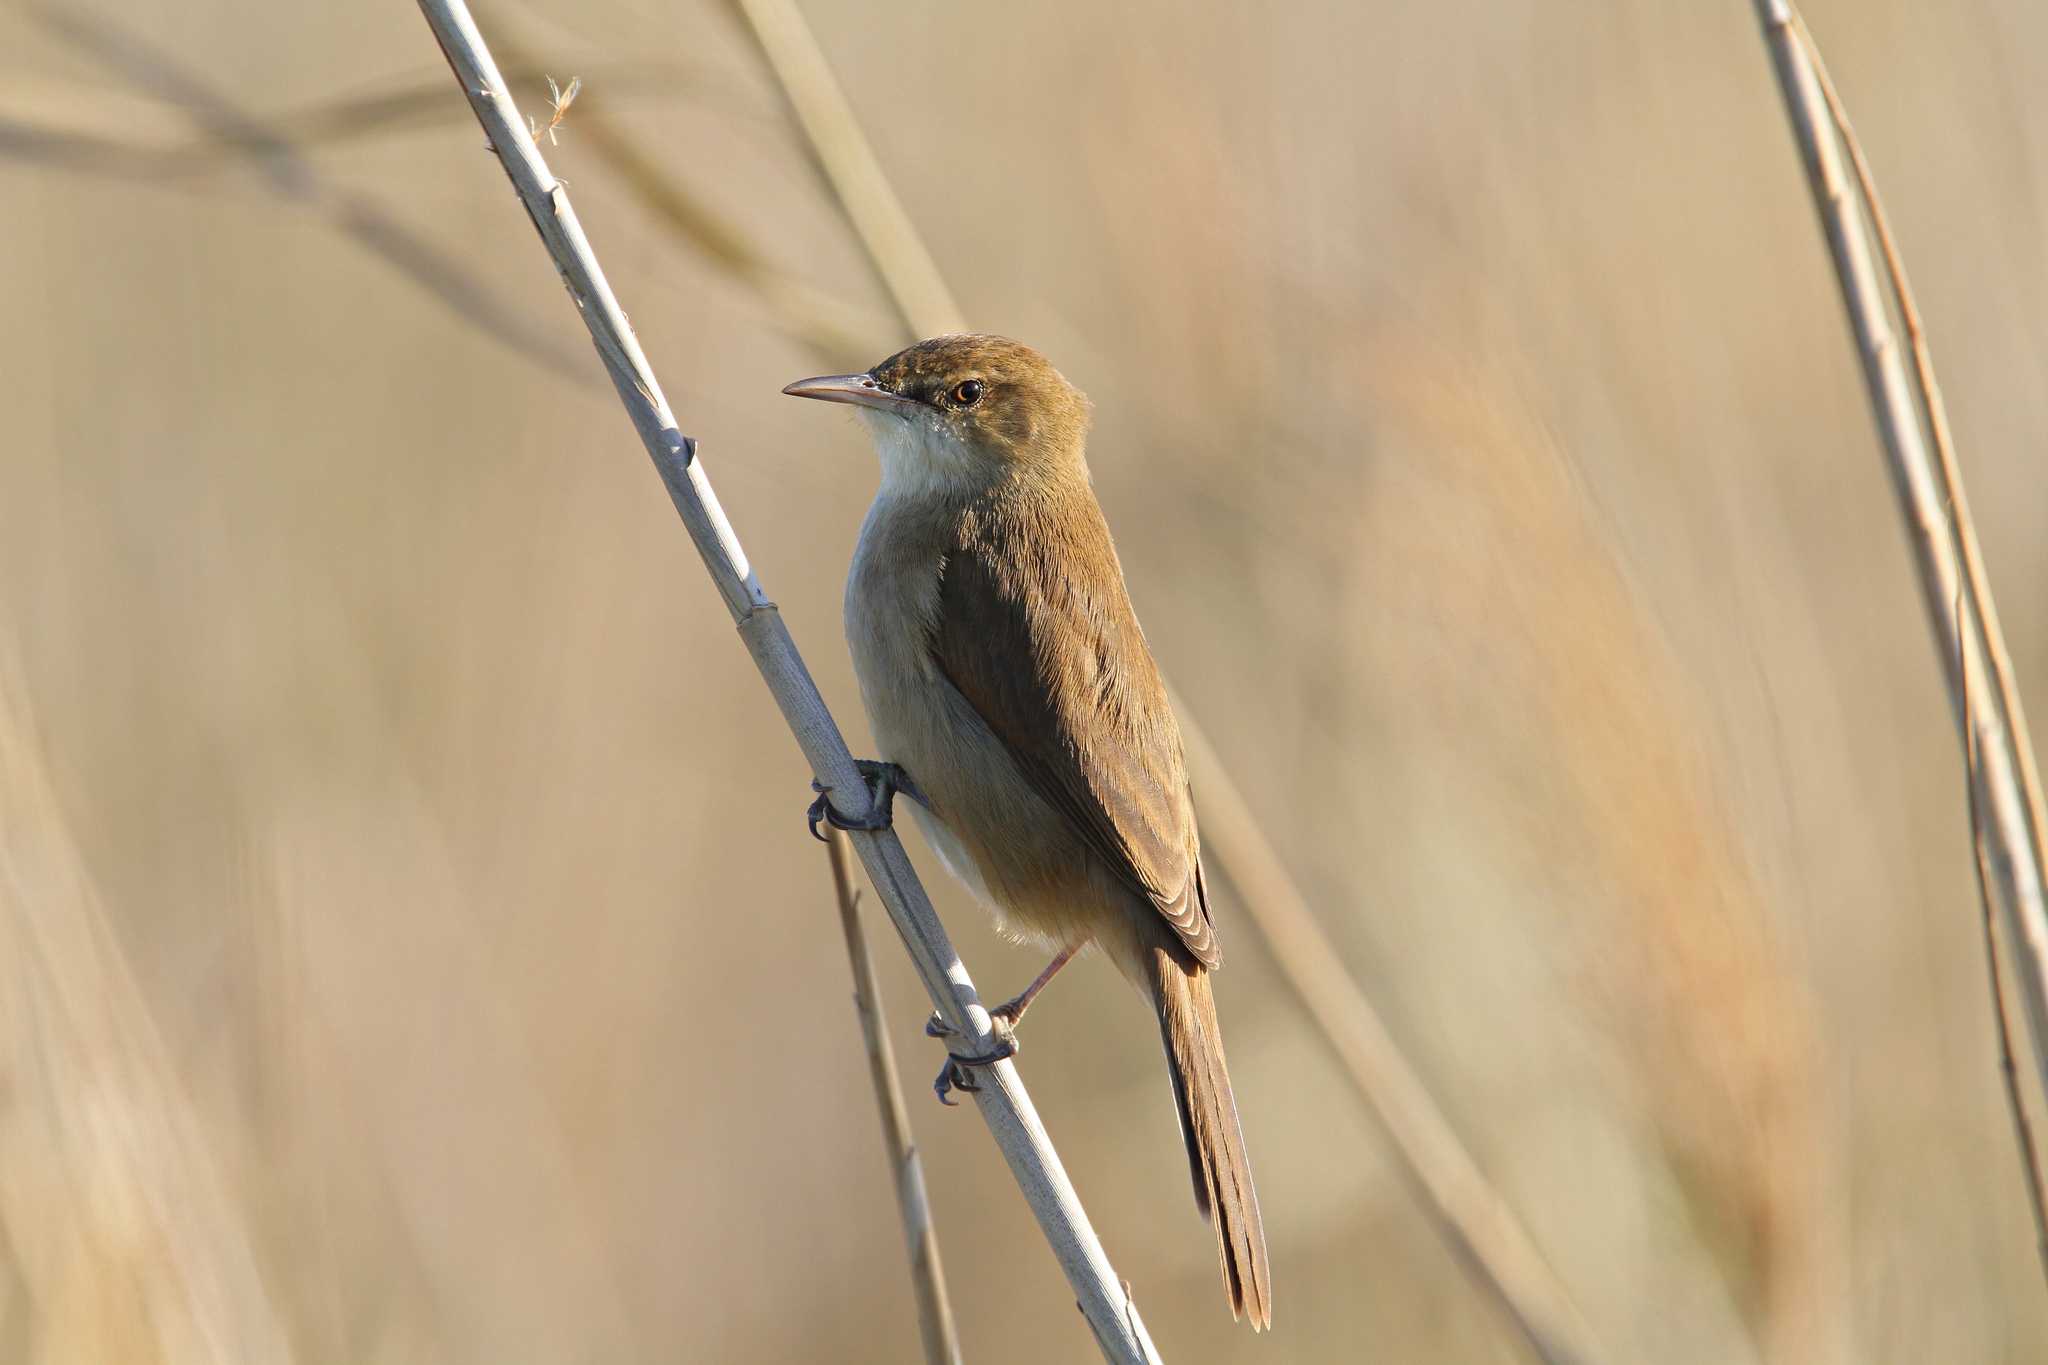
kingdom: Animalia
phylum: Chordata
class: Aves
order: Passeriformes
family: Acrocephalidae
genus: Acrocephalus
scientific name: Acrocephalus stentoreus
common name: Clamorous reed warbler
